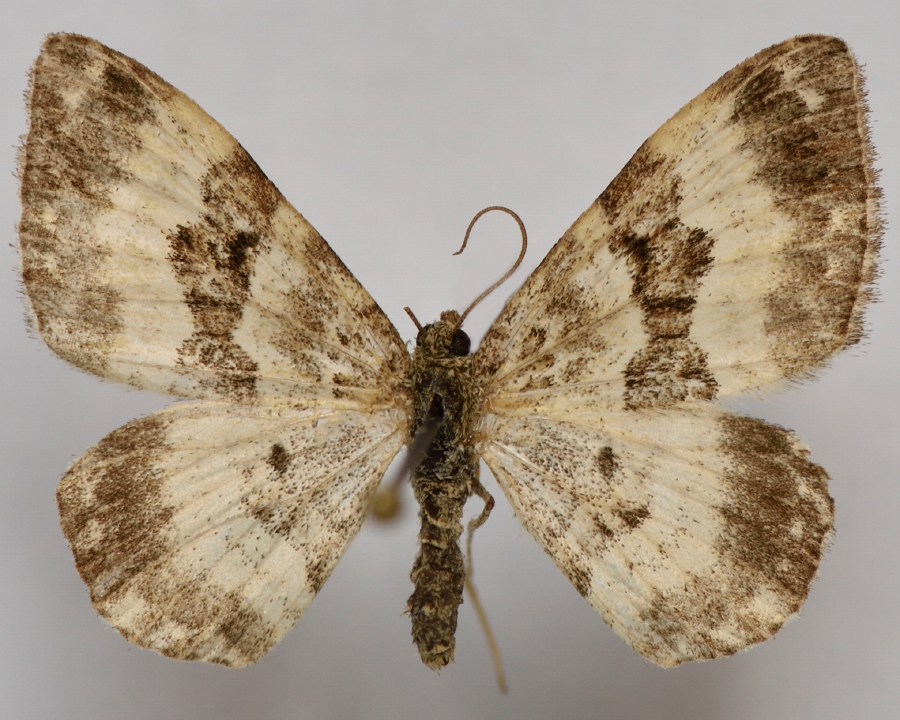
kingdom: Animalia
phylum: Arthropoda
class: Insecta
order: Lepidoptera
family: Geometridae
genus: Epirrhoe
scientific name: Epirrhoe rivata
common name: Wood carpet
